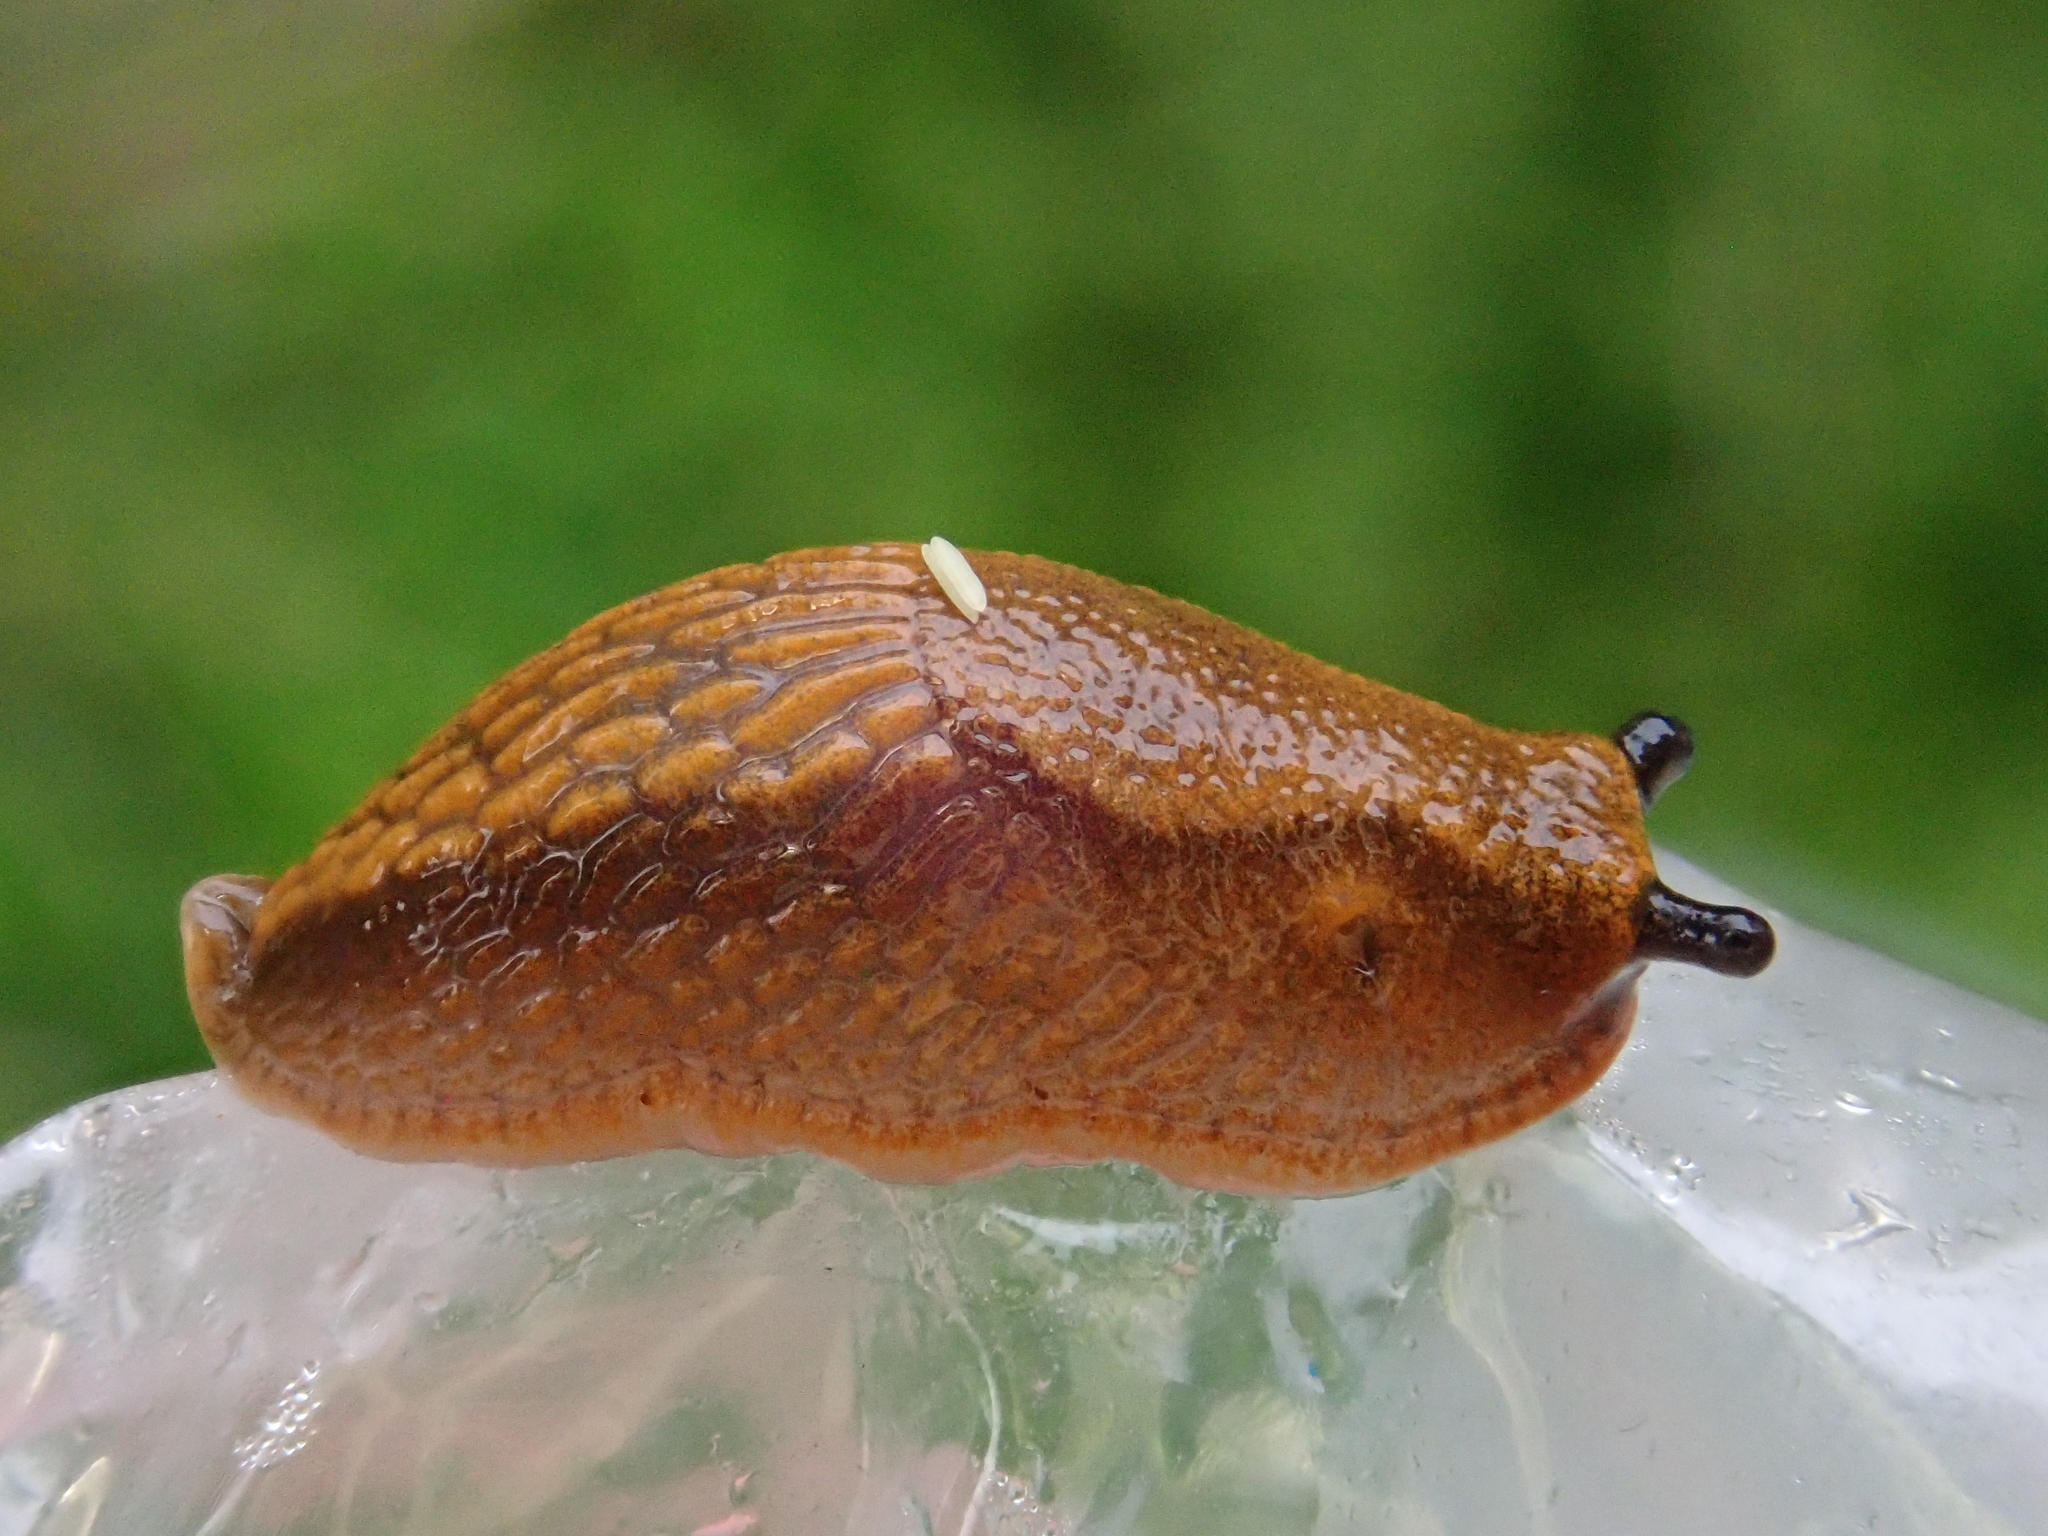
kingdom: Animalia
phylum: Mollusca
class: Gastropoda
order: Stylommatophora
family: Arionidae
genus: Arion
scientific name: Arion vulgaris
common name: Lusitanian slug
